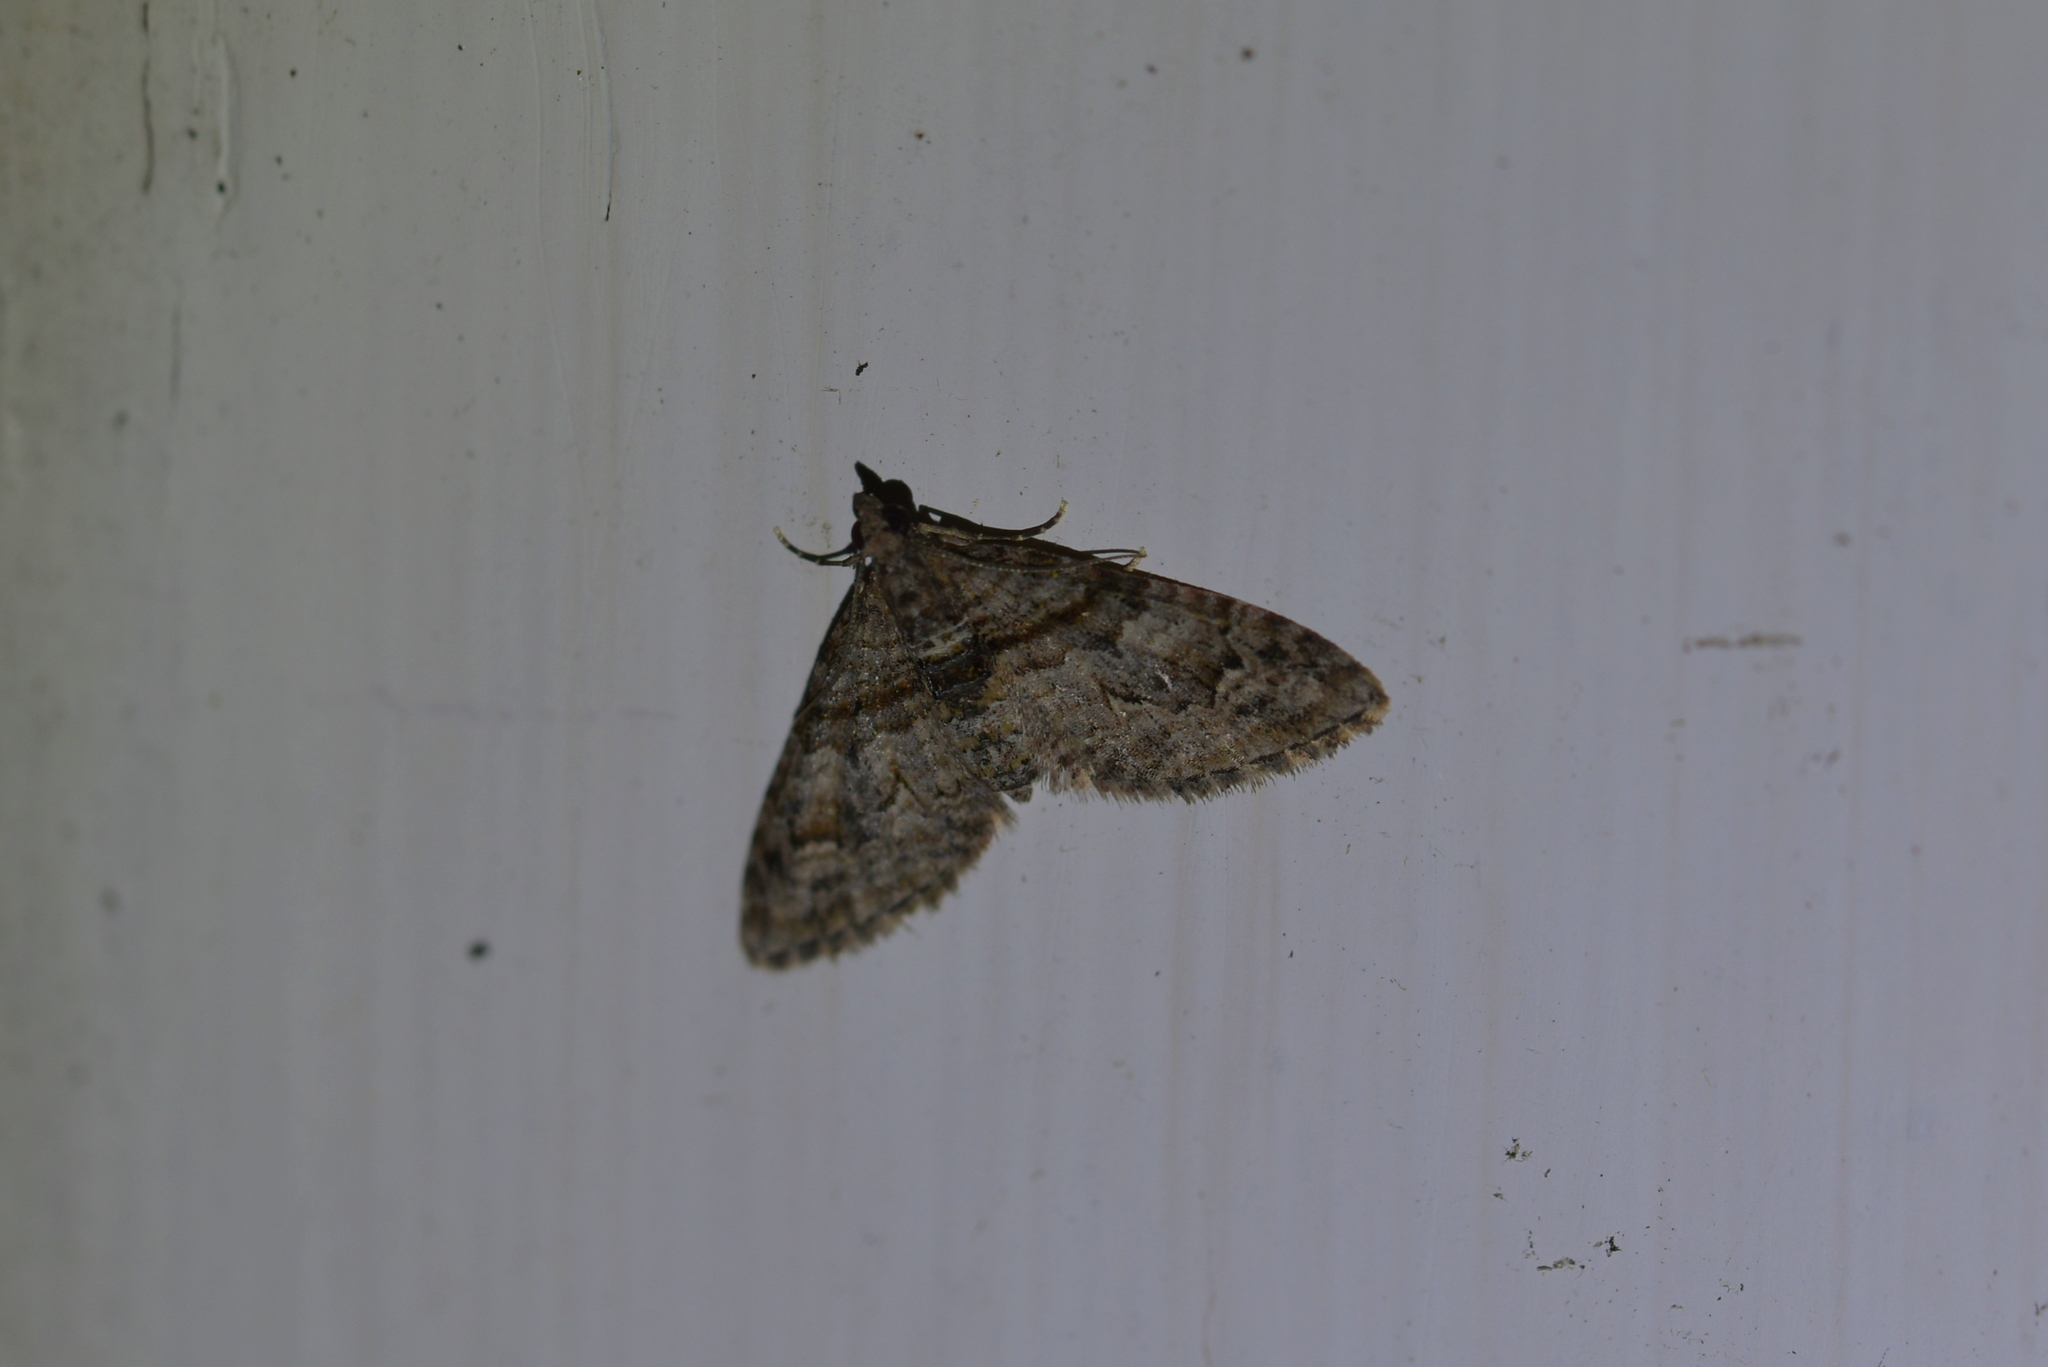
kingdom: Animalia
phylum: Arthropoda
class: Insecta
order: Lepidoptera
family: Geometridae
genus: Phrissogonus
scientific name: Phrissogonus laticostata
